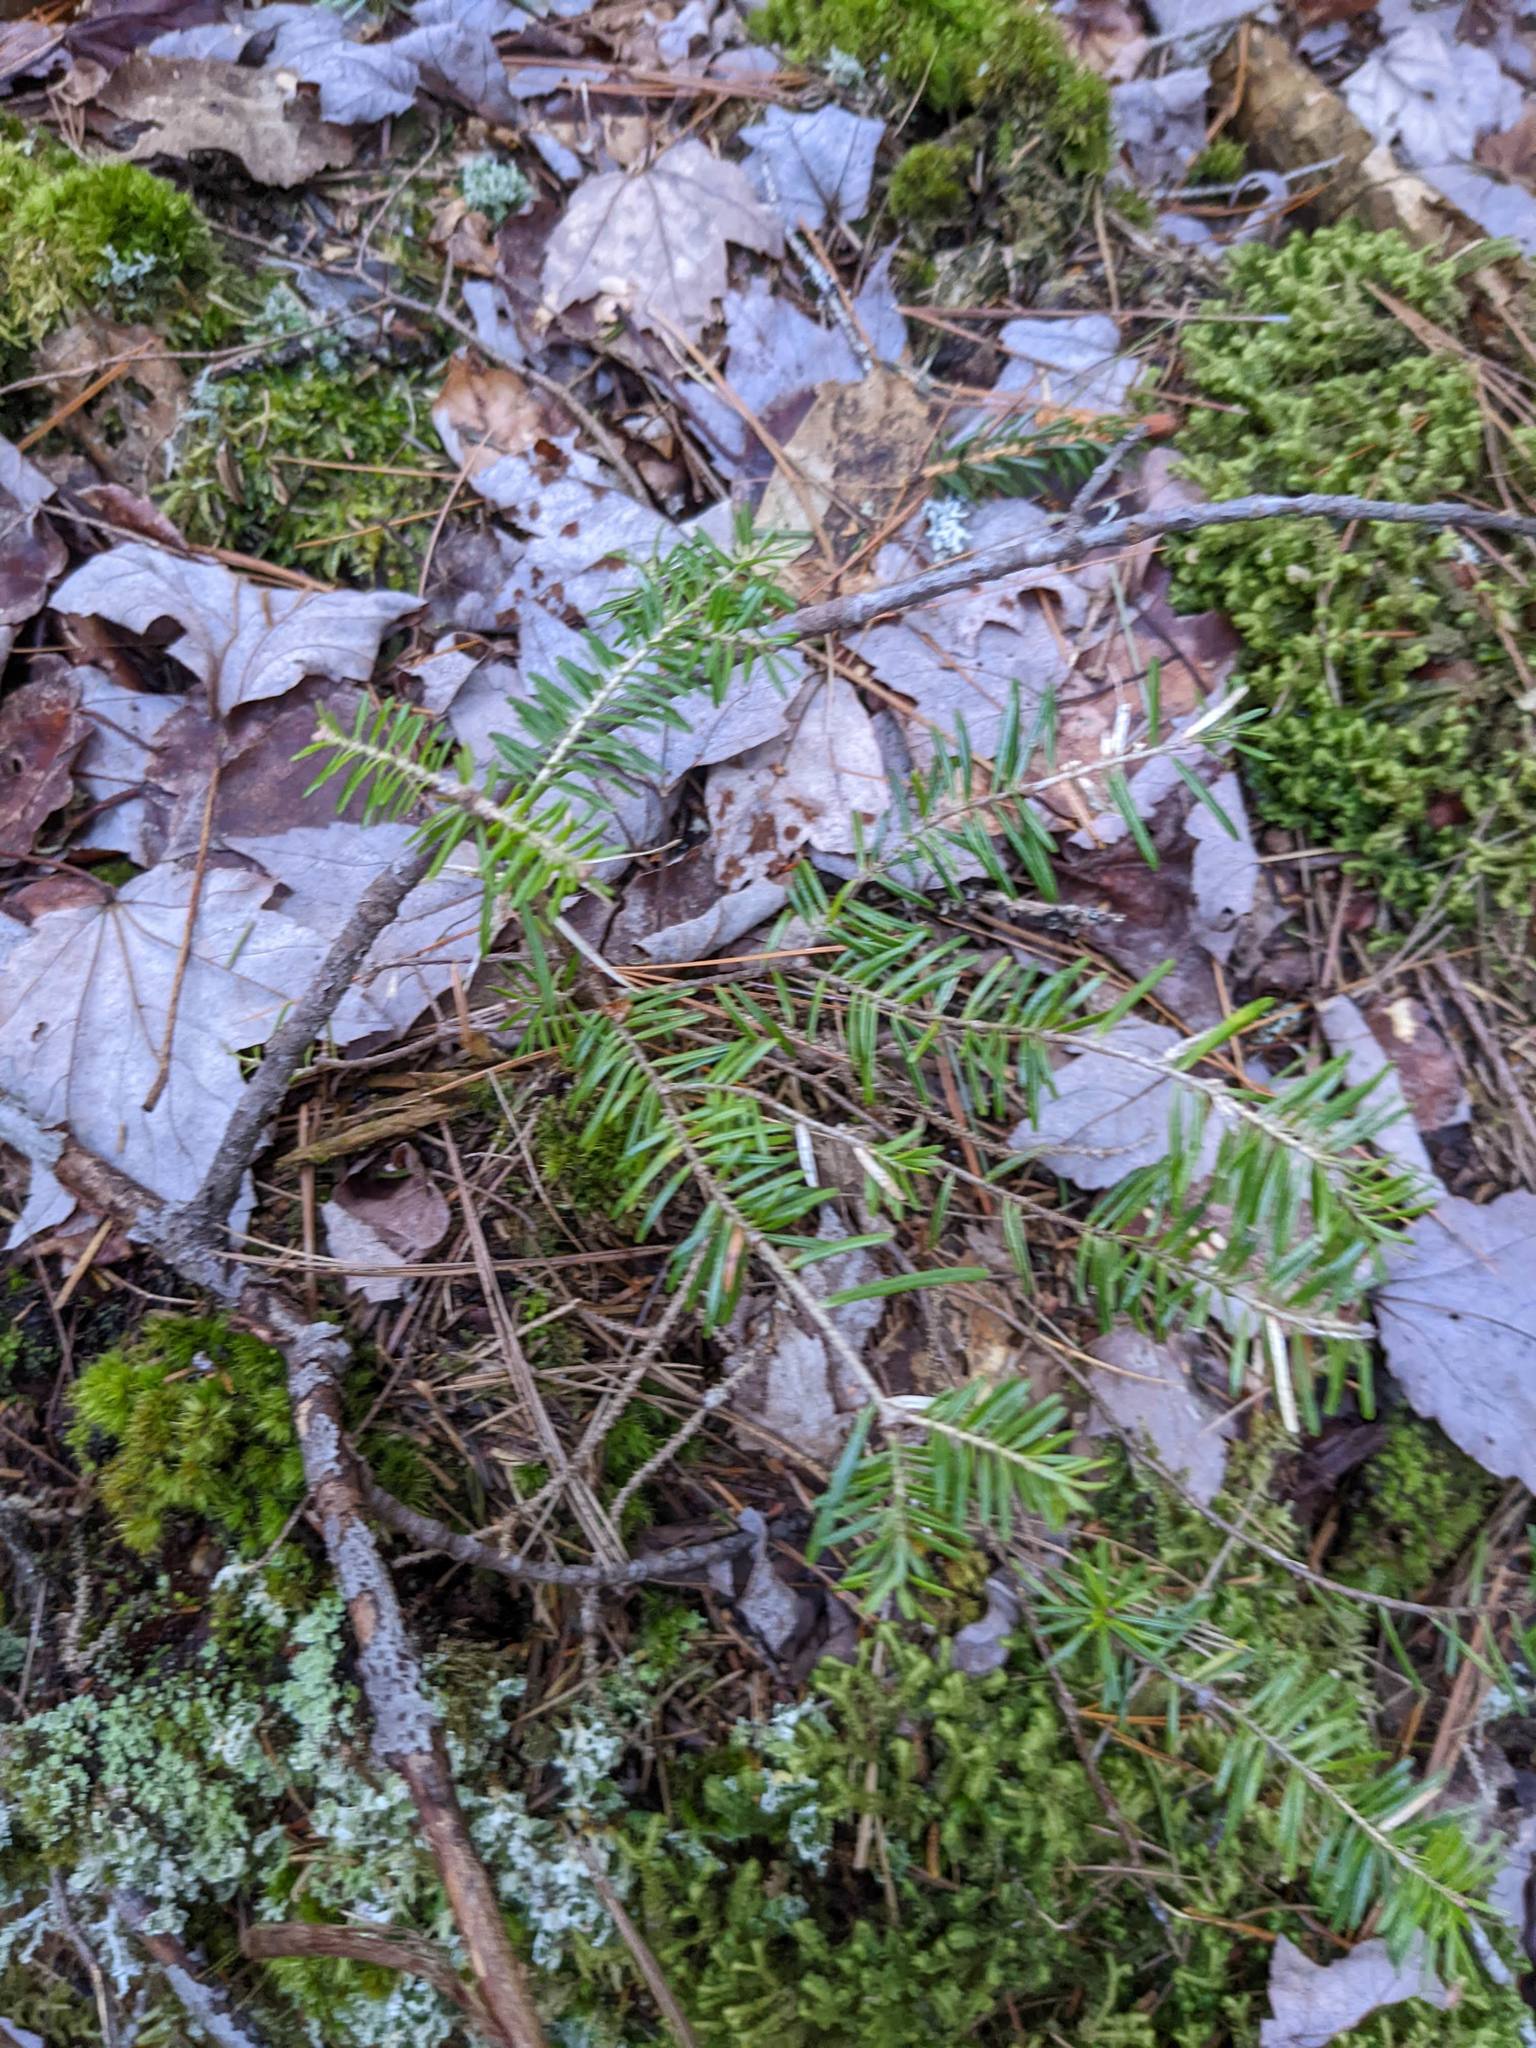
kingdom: Plantae
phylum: Tracheophyta
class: Pinopsida
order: Pinales
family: Pinaceae
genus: Abies
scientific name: Abies balsamea
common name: Balsam fir
